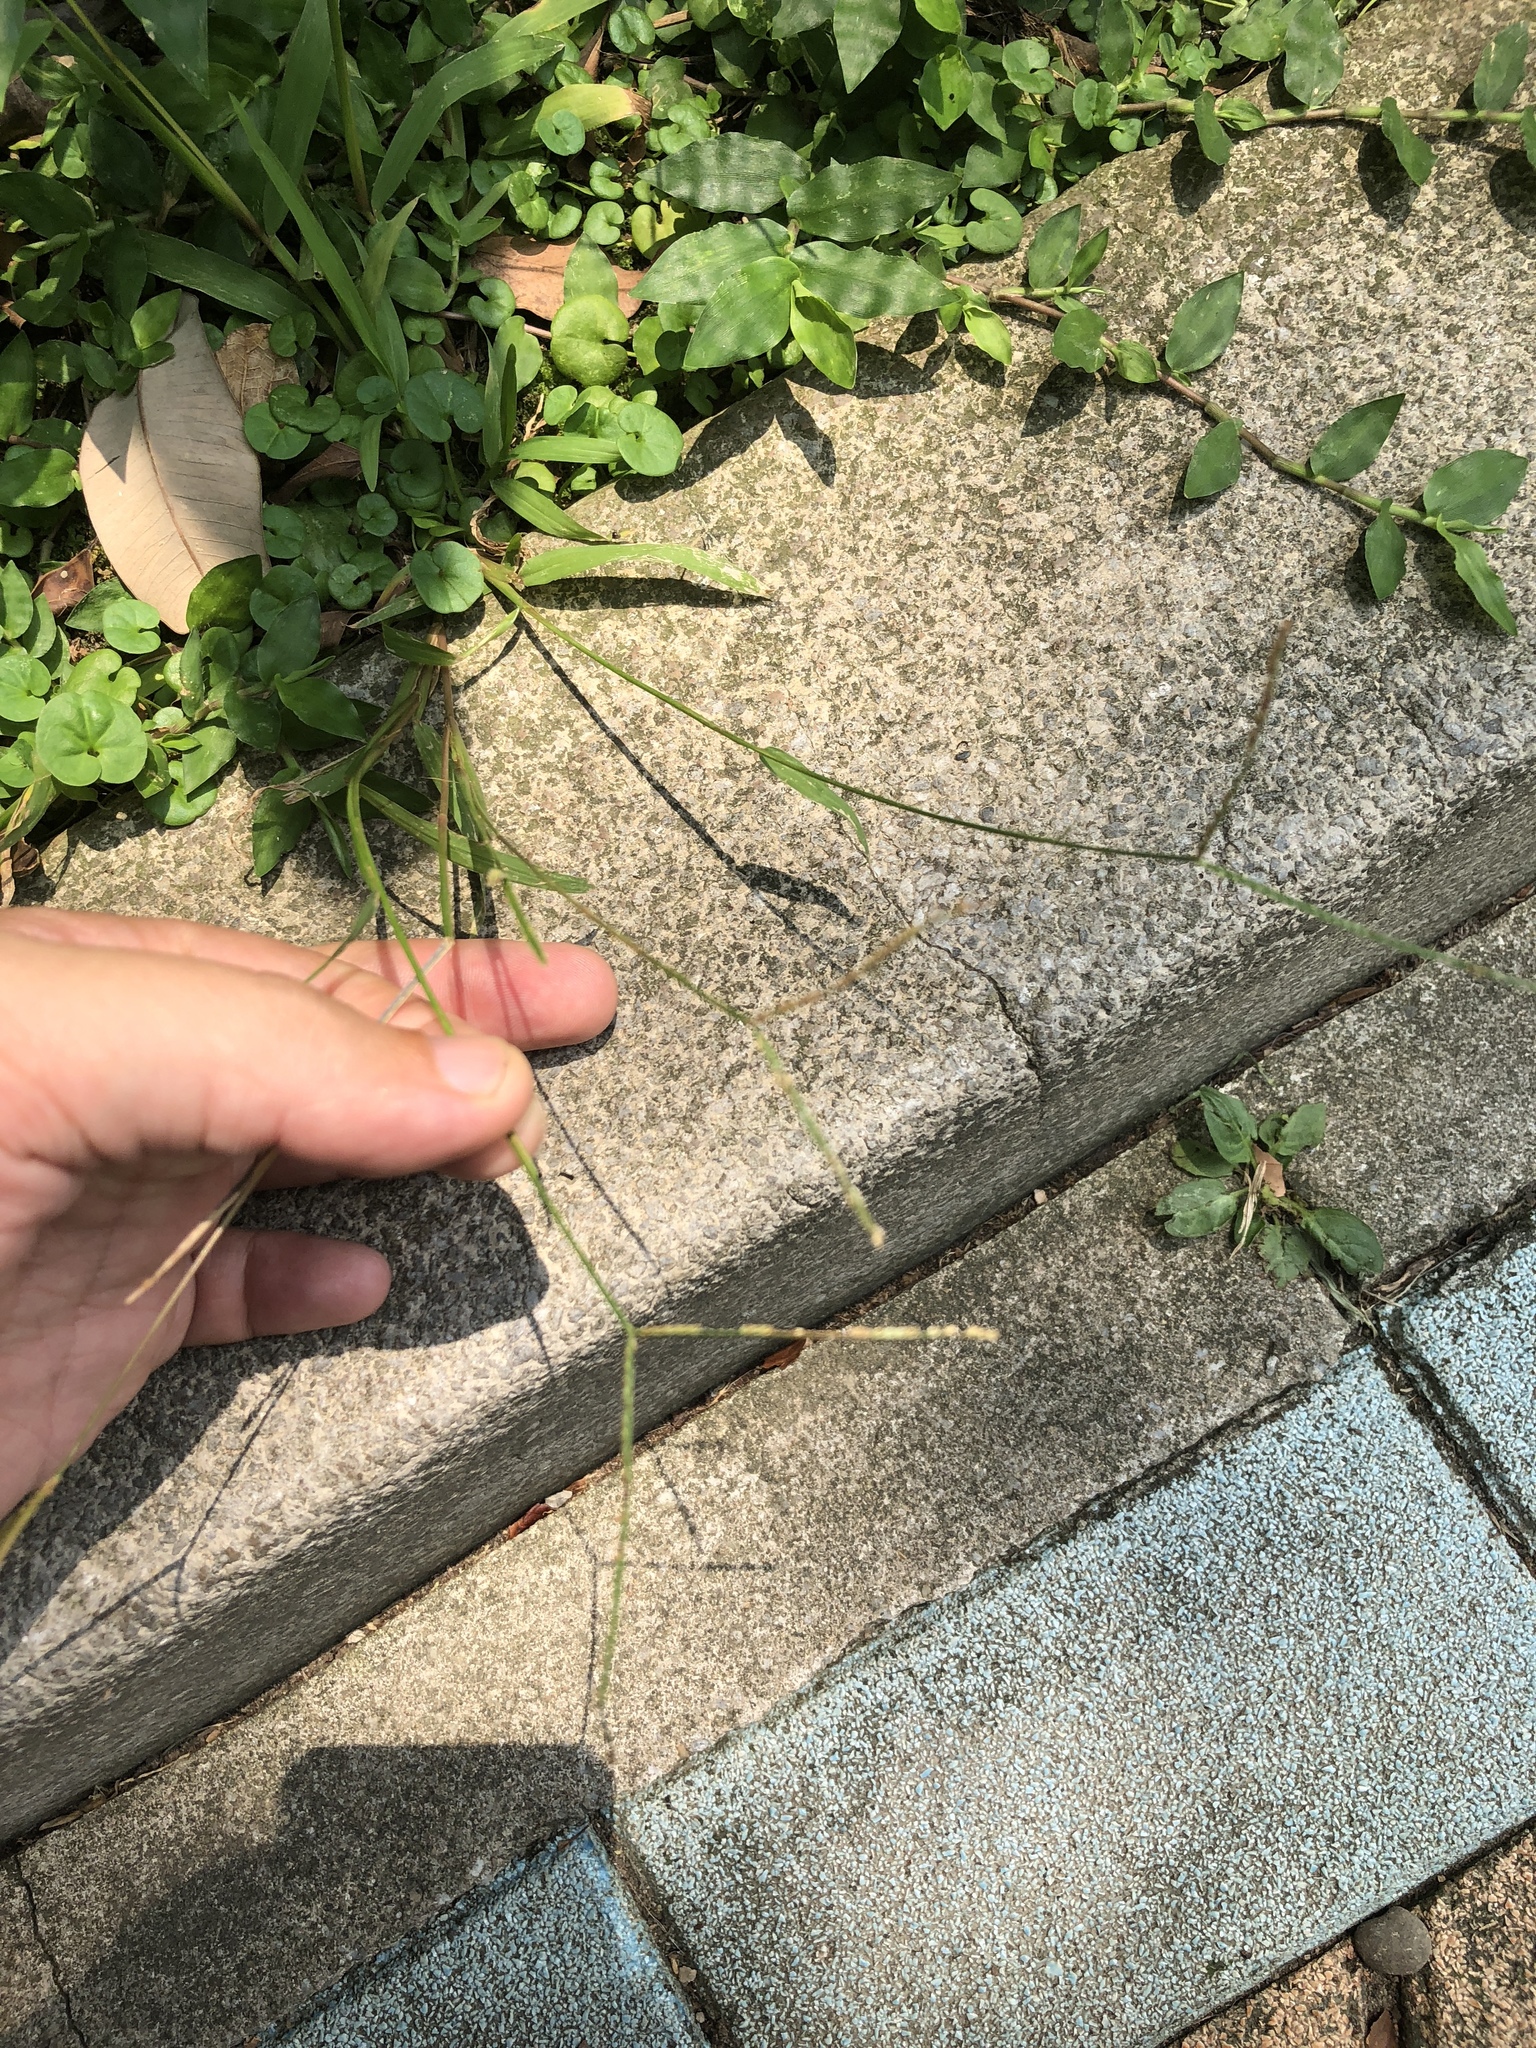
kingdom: Plantae
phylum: Tracheophyta
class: Liliopsida
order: Poales
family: Poaceae
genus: Paspalum
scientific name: Paspalum conjugatum
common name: Hilograss
